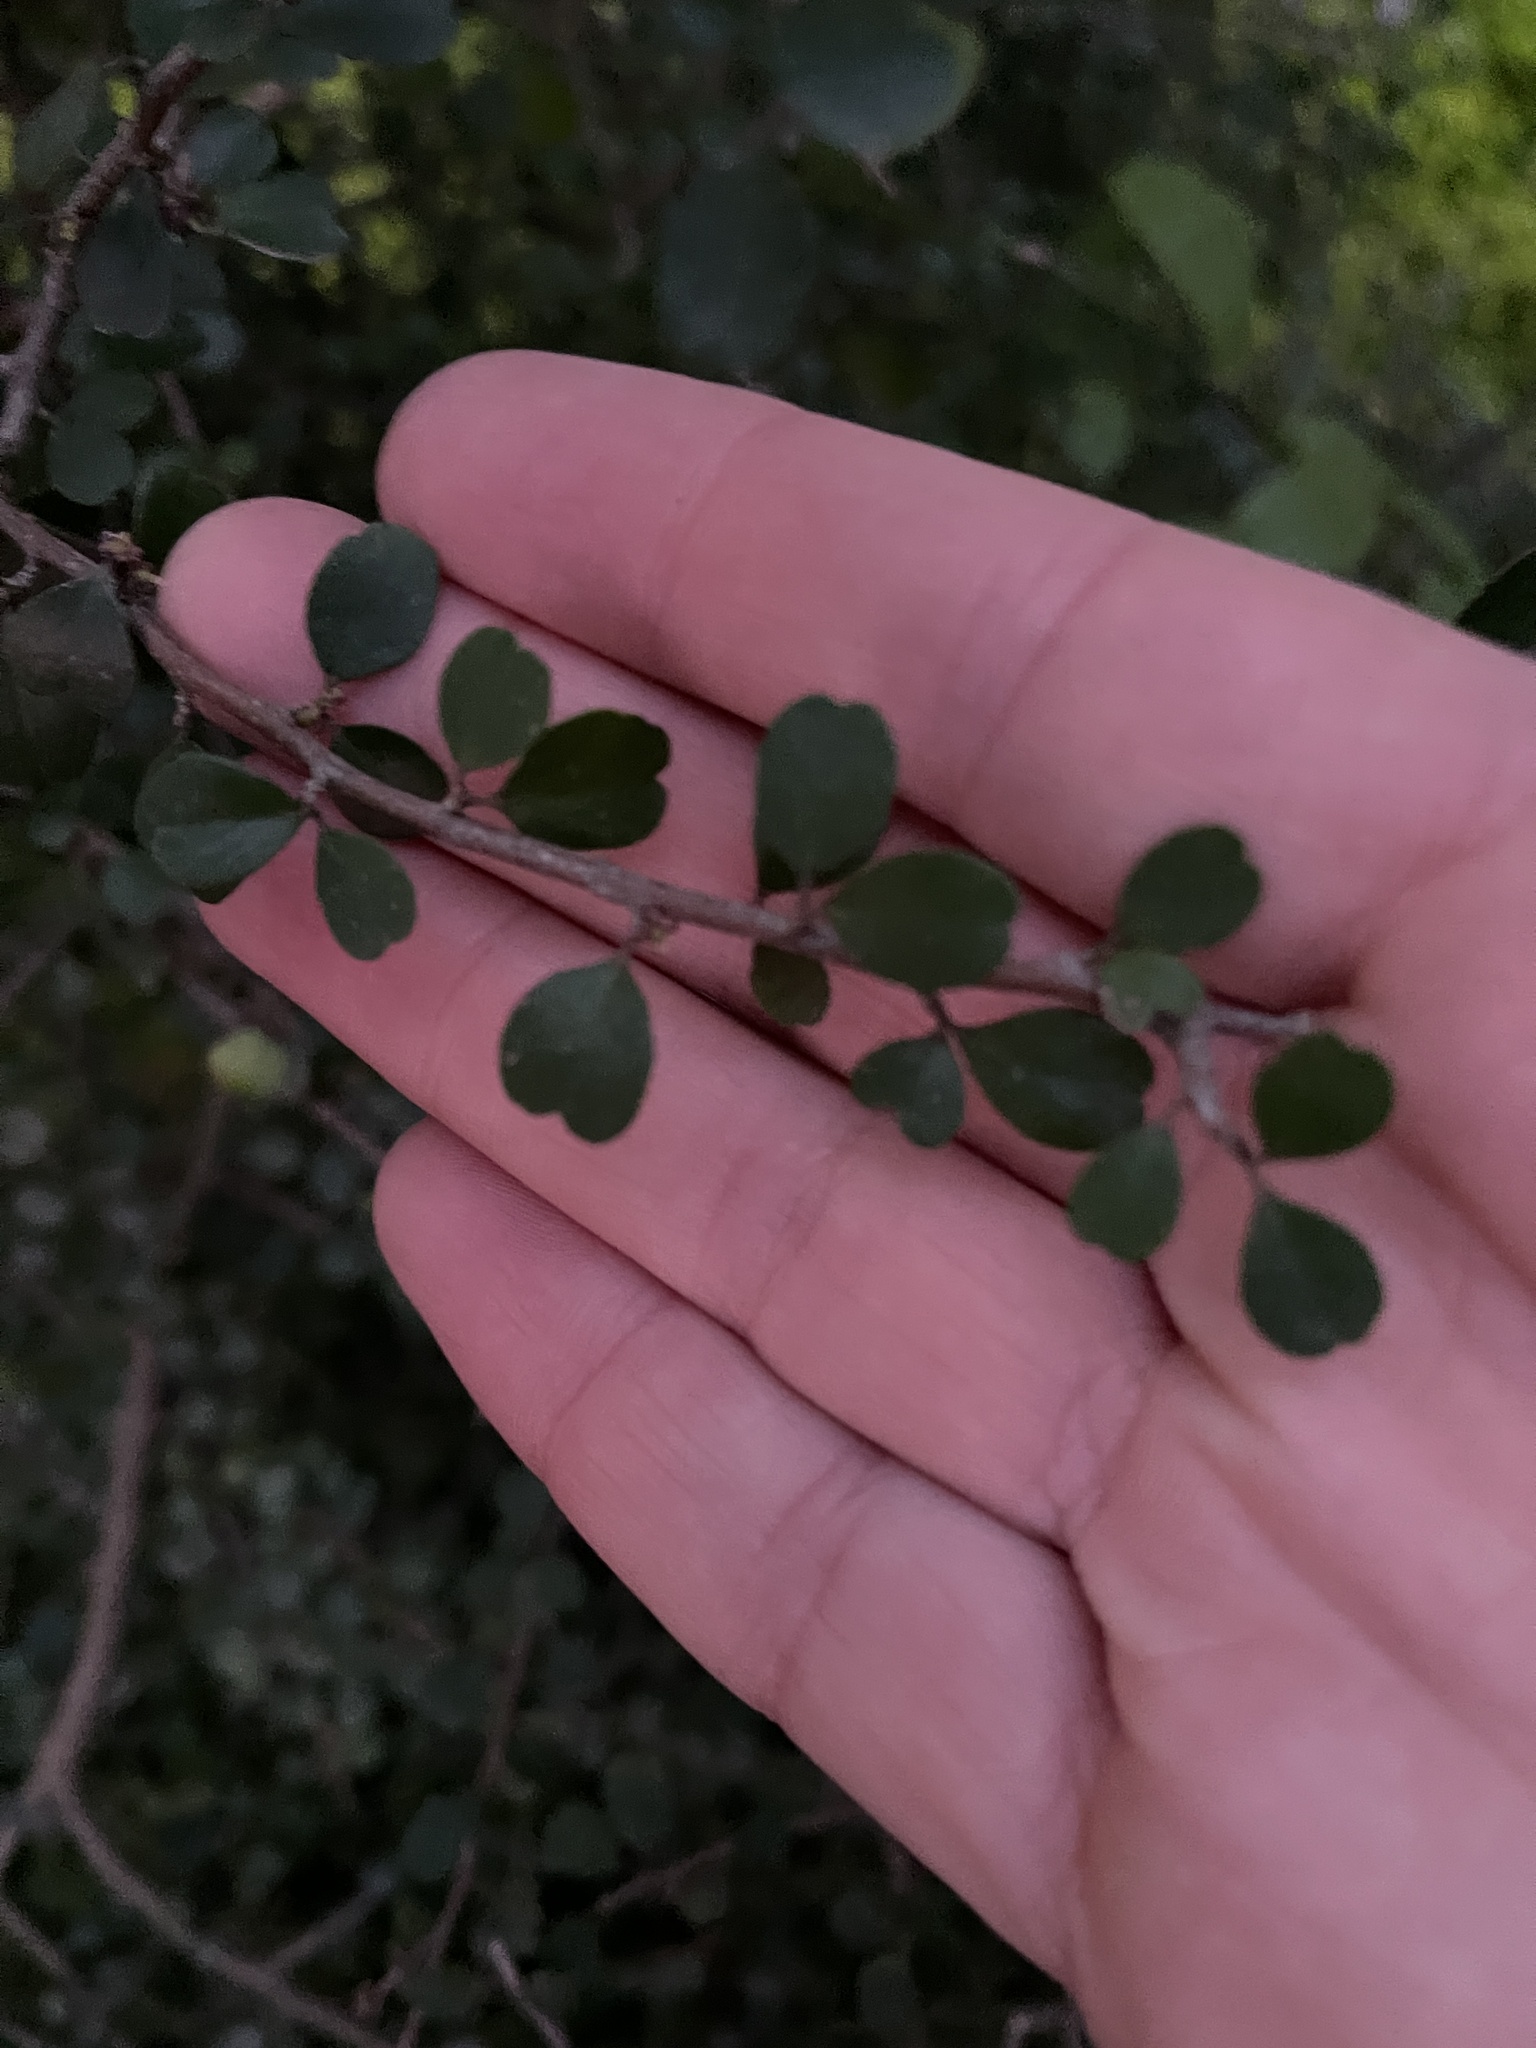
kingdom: Plantae
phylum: Tracheophyta
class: Magnoliopsida
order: Ericales
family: Primulaceae
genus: Myrsine
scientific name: Myrsine divaricata
